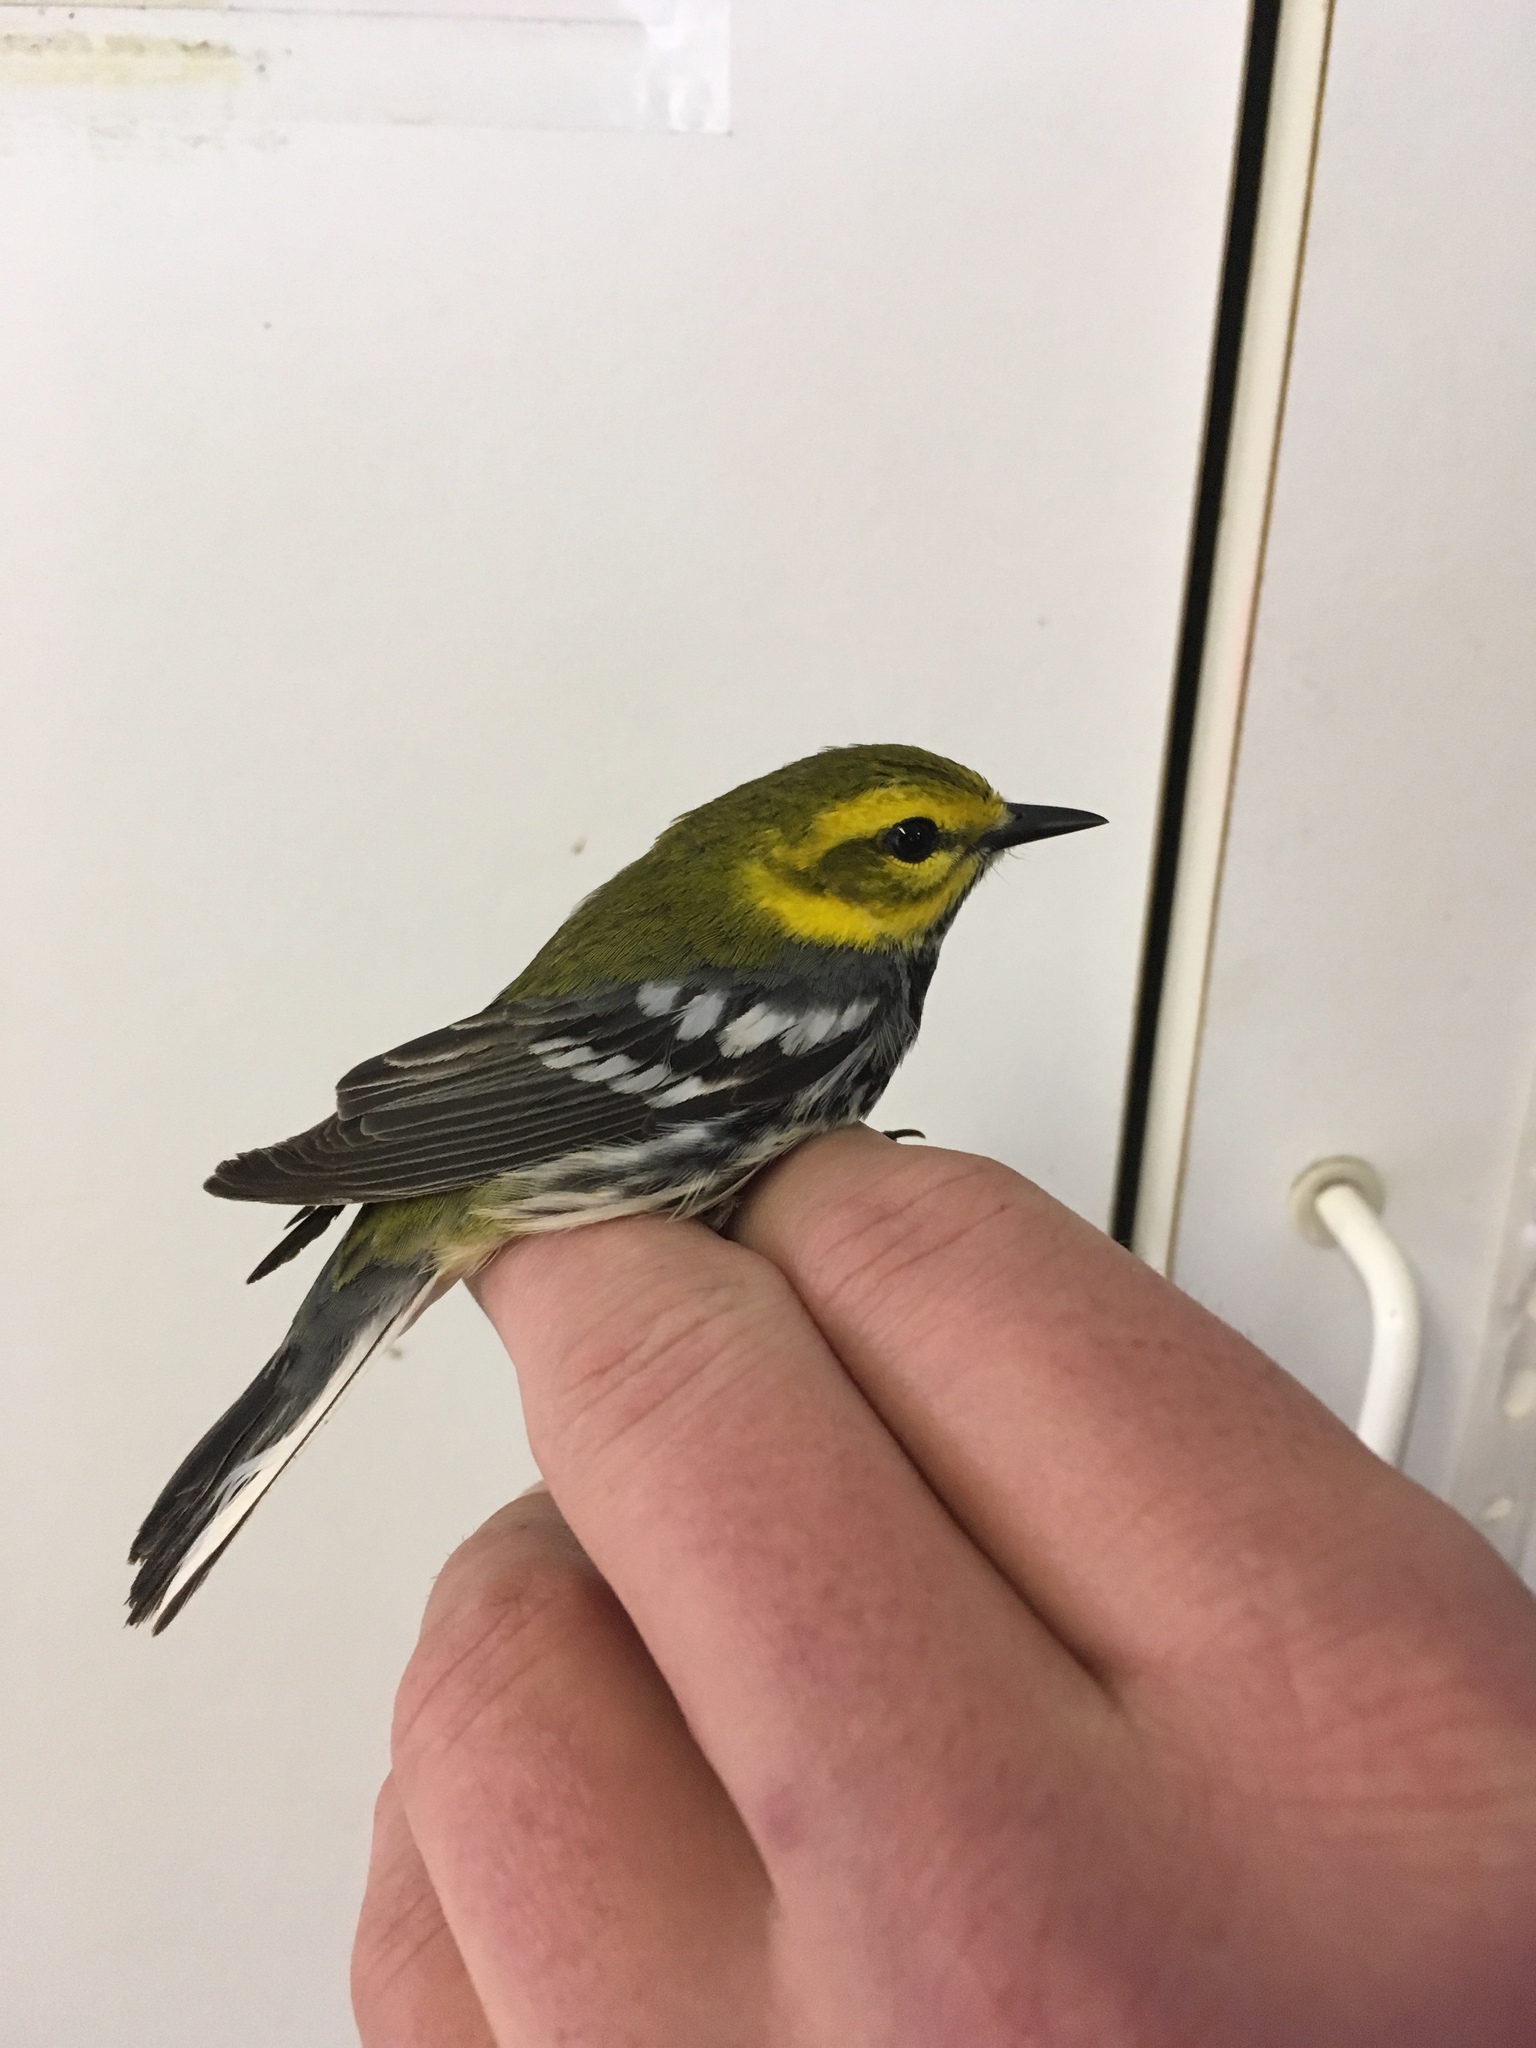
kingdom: Animalia
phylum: Chordata
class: Aves
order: Passeriformes
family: Parulidae
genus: Setophaga
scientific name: Setophaga virens
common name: Black-throated green warbler
